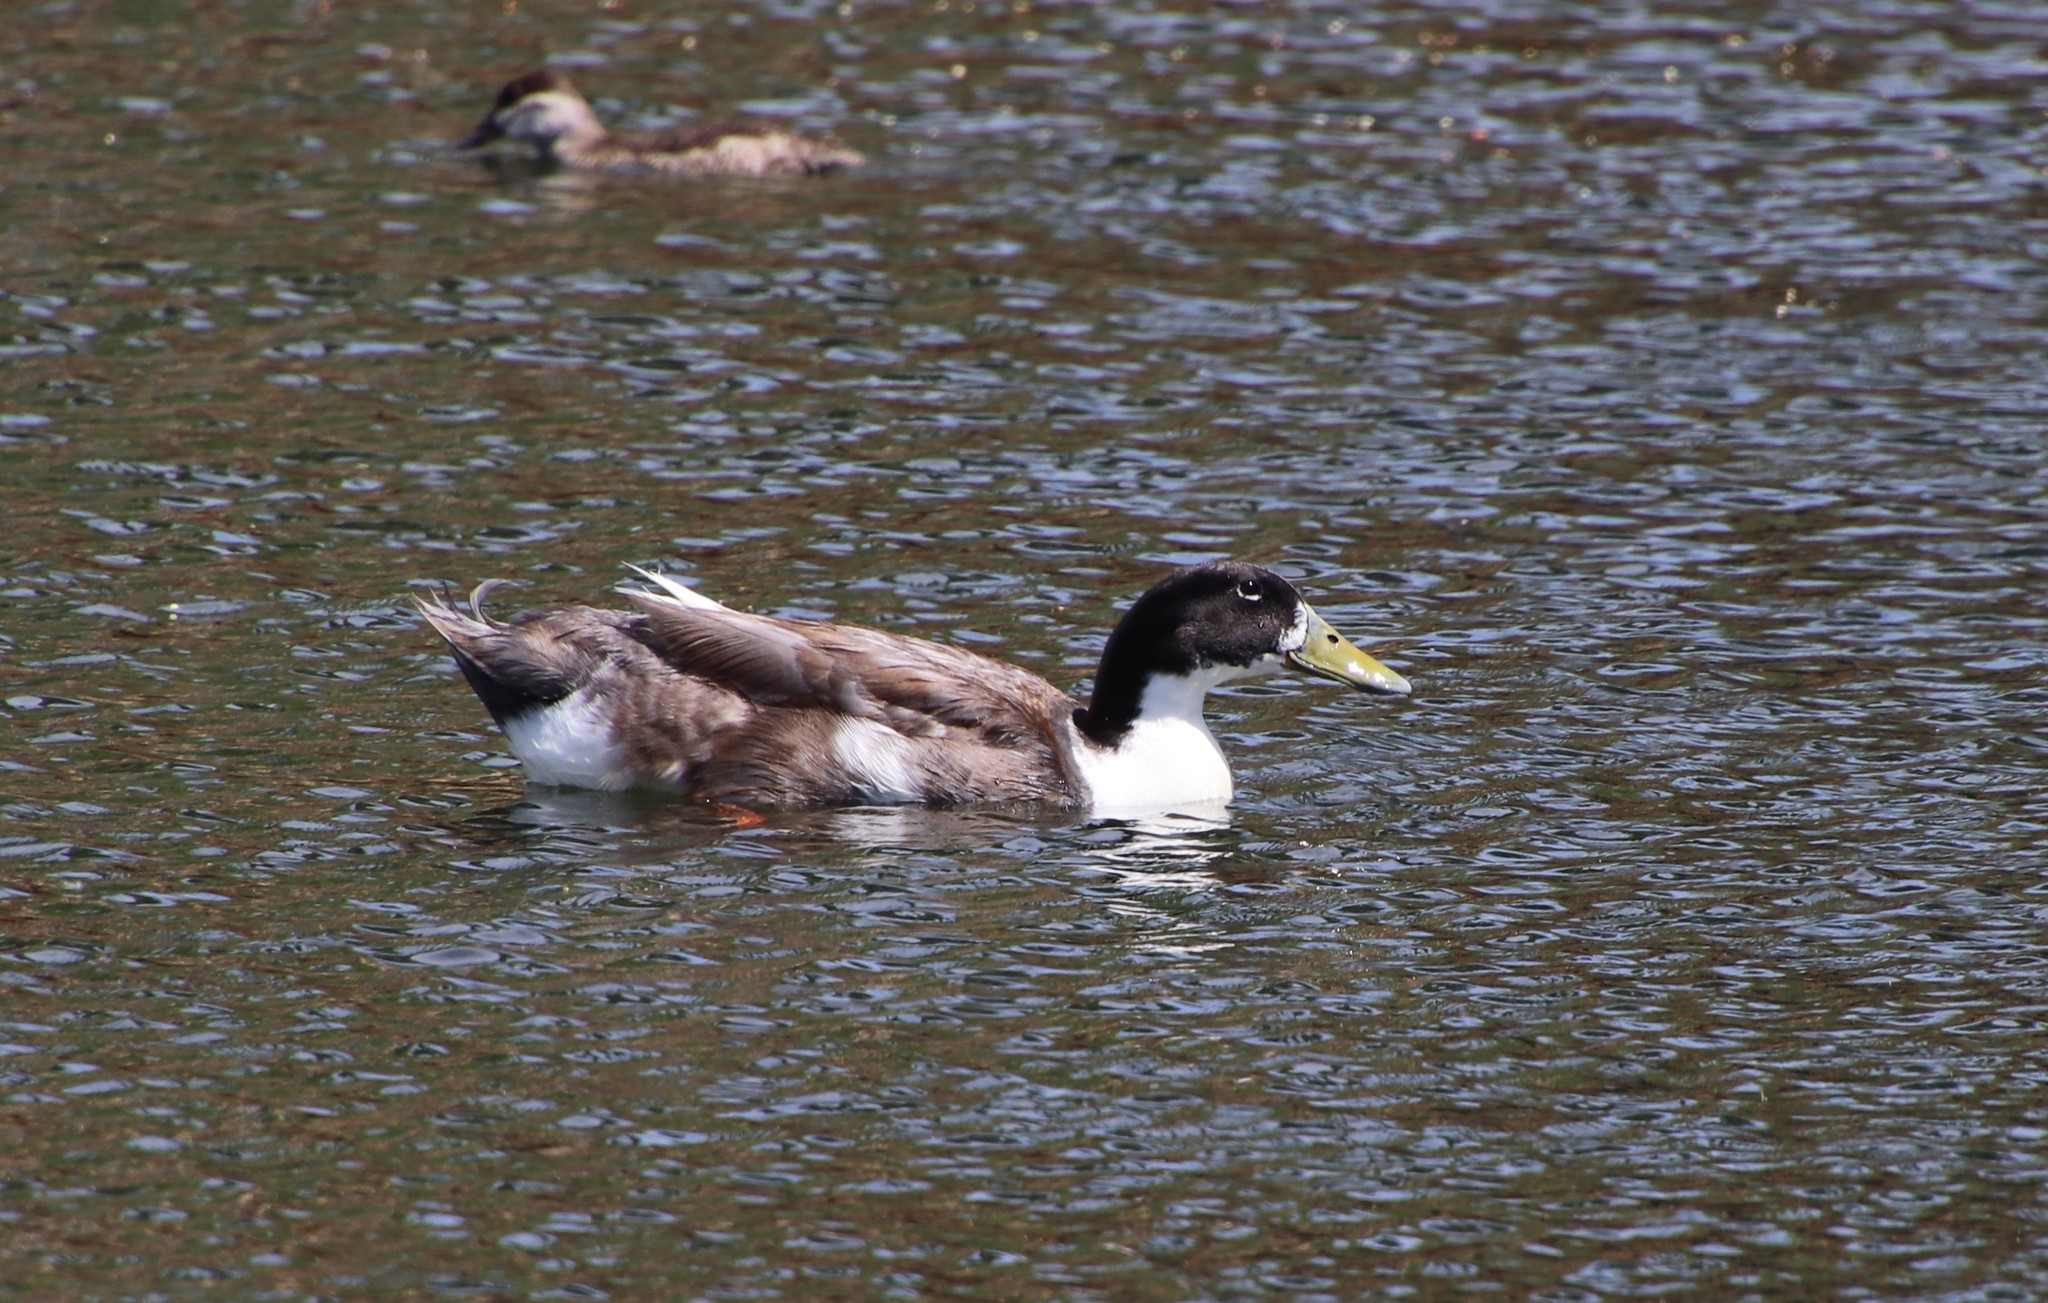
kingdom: Animalia
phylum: Chordata
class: Aves
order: Anseriformes
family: Anatidae
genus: Anas
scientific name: Anas platyrhynchos
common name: Mallard
